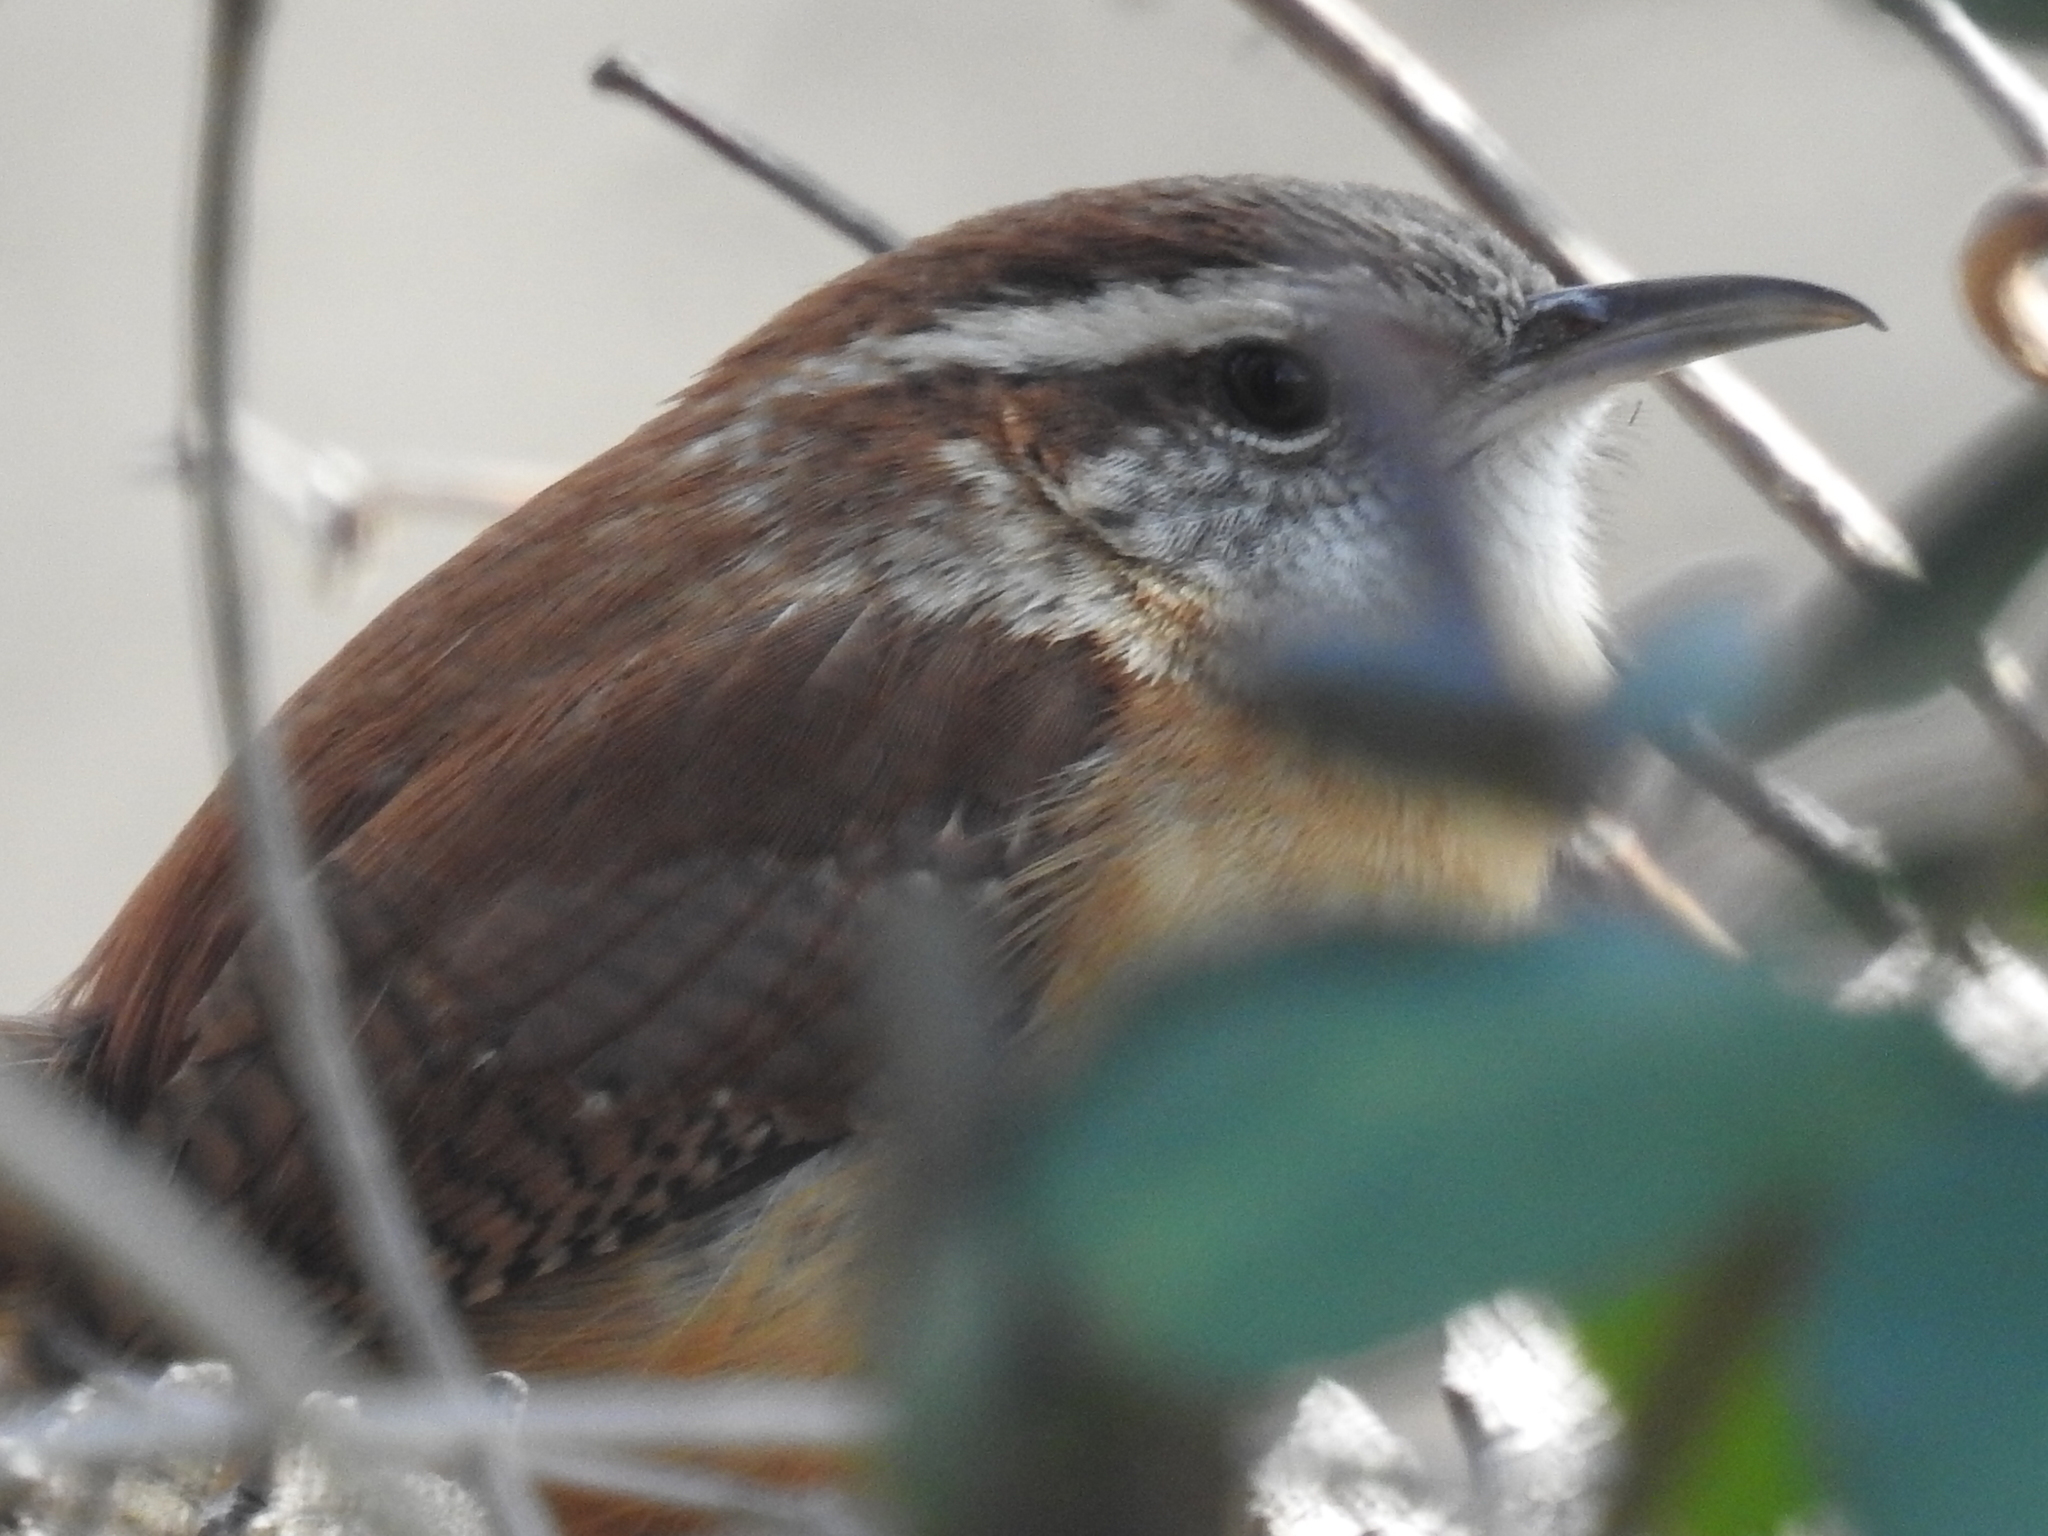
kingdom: Animalia
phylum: Chordata
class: Aves
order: Passeriformes
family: Troglodytidae
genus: Thryothorus
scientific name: Thryothorus ludovicianus
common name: Carolina wren
